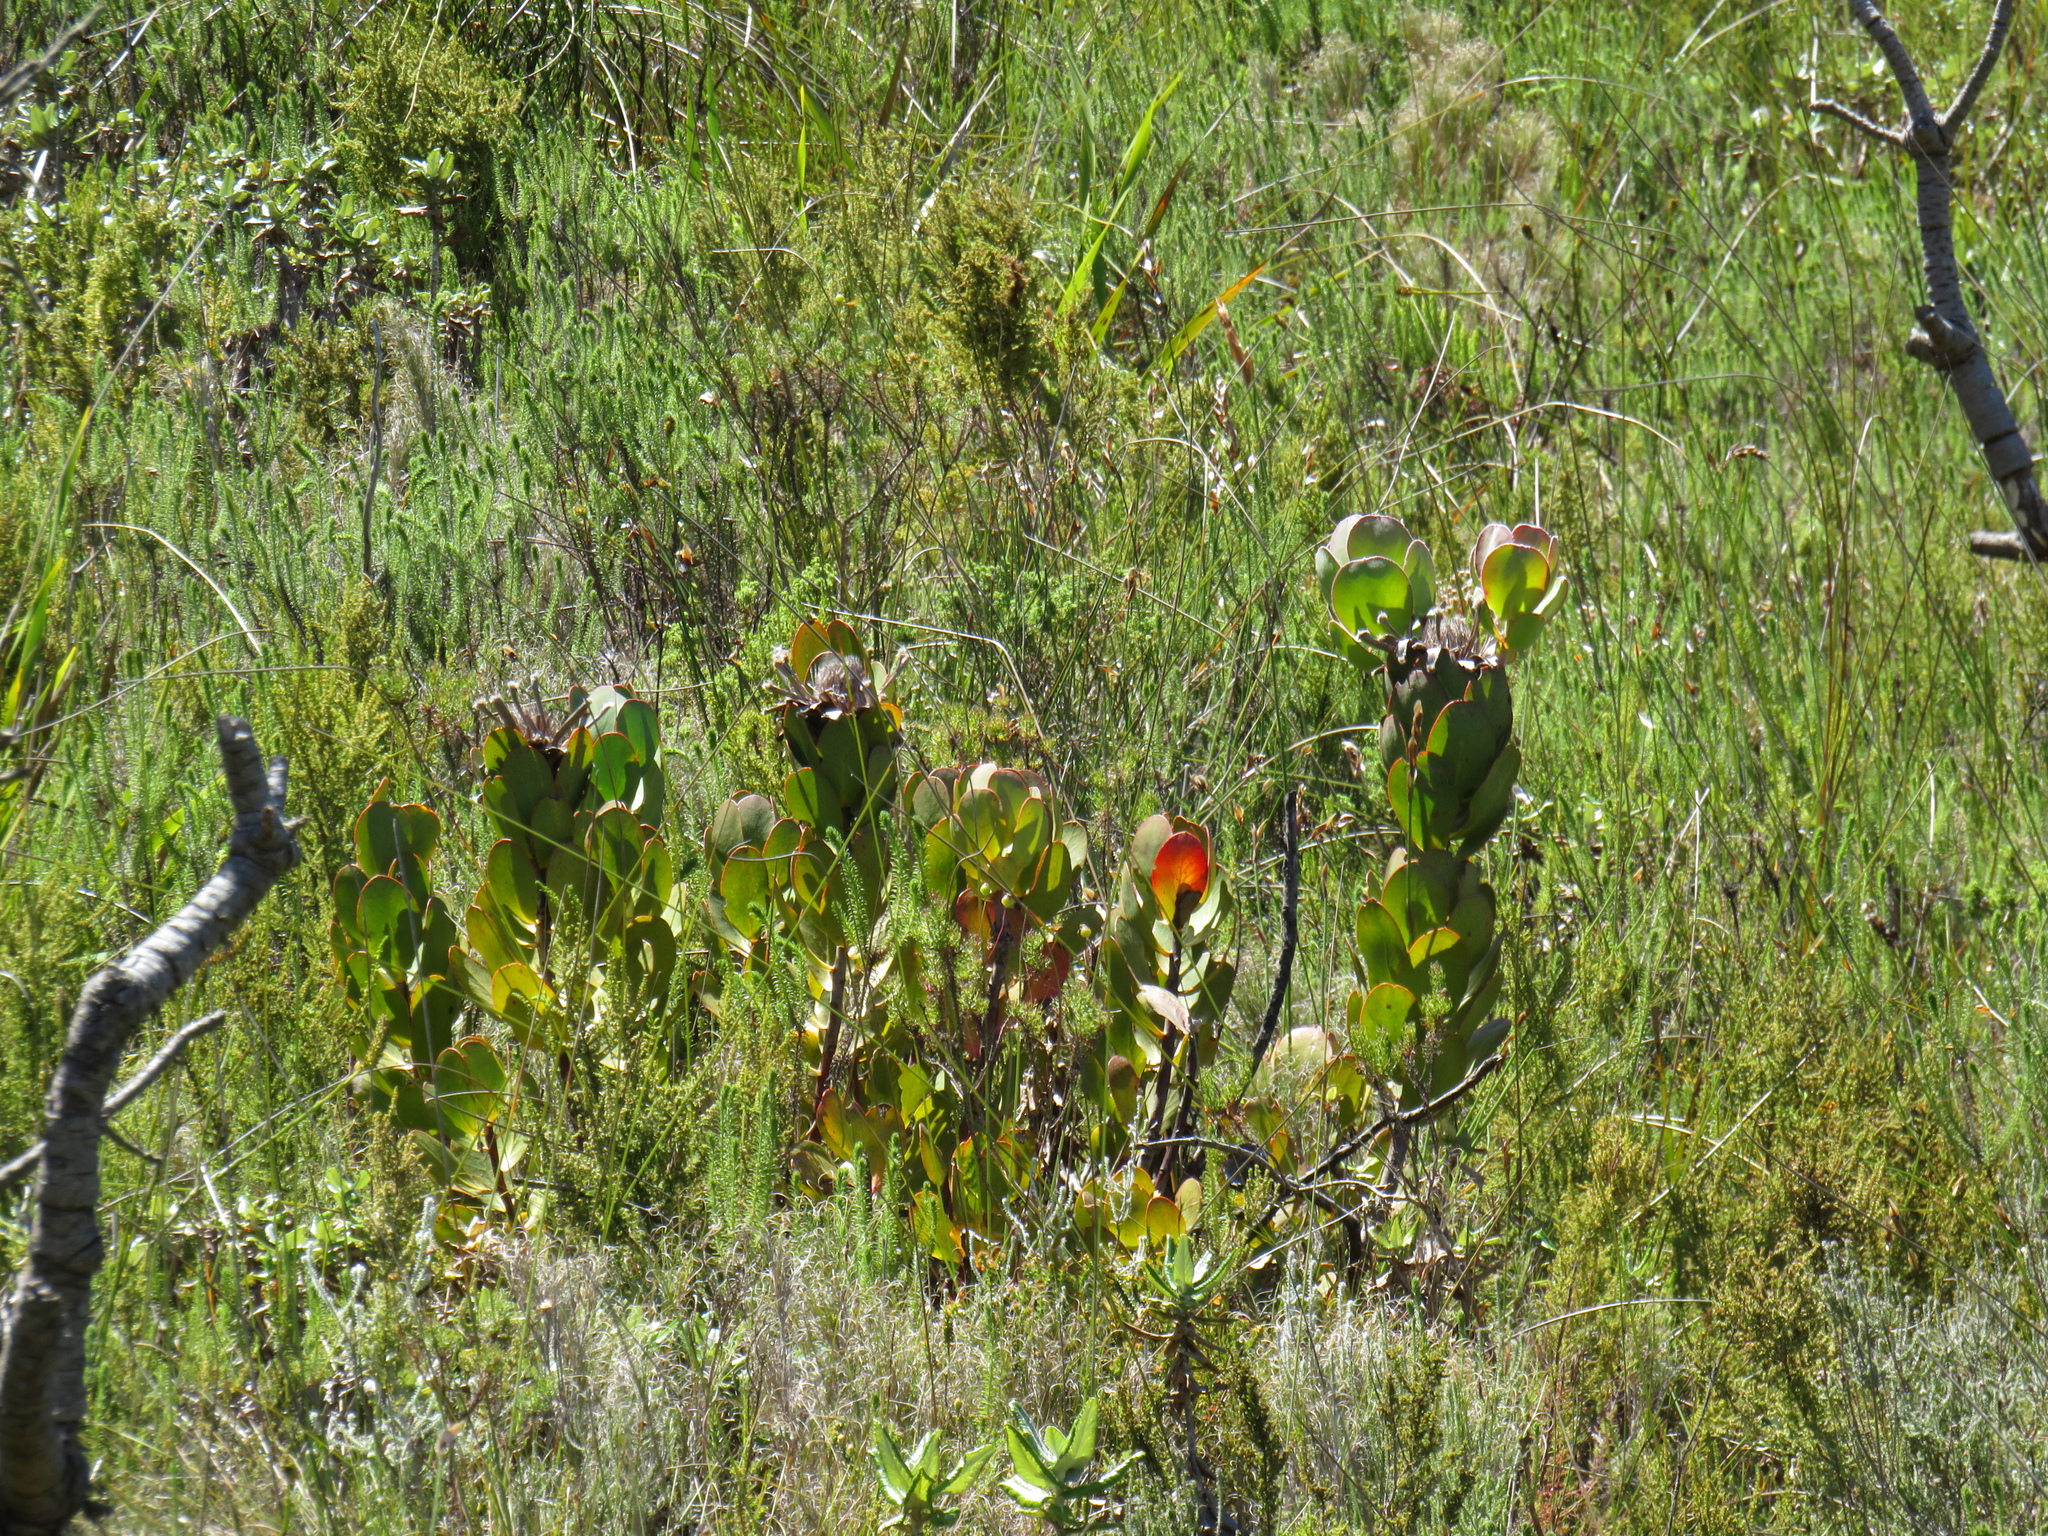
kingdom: Plantae
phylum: Tracheophyta
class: Magnoliopsida
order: Proteales
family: Proteaceae
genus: Protea
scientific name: Protea speciosa
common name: Brown-beard sugarbush
